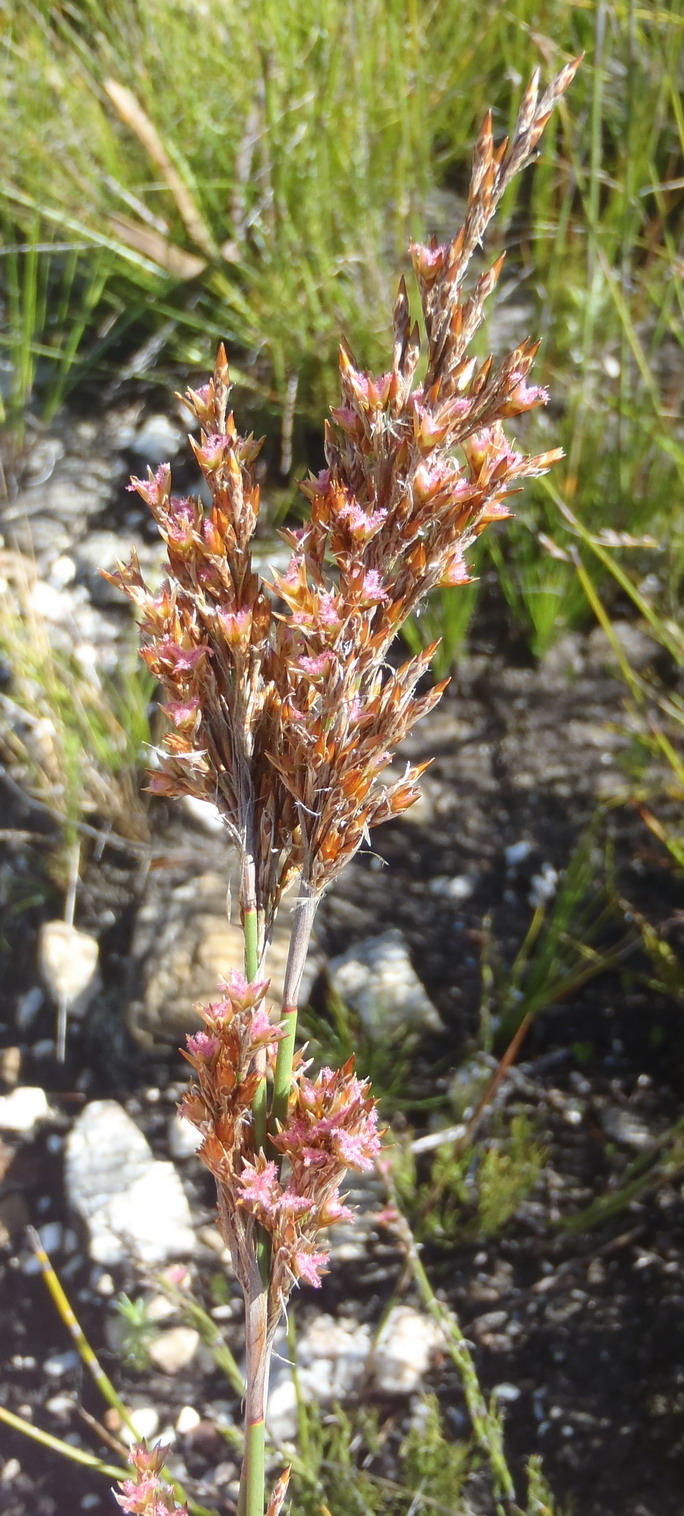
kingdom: Plantae
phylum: Tracheophyta
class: Liliopsida
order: Poales
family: Restionaceae
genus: Rhodocoma
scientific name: Rhodocoma fruticosa
